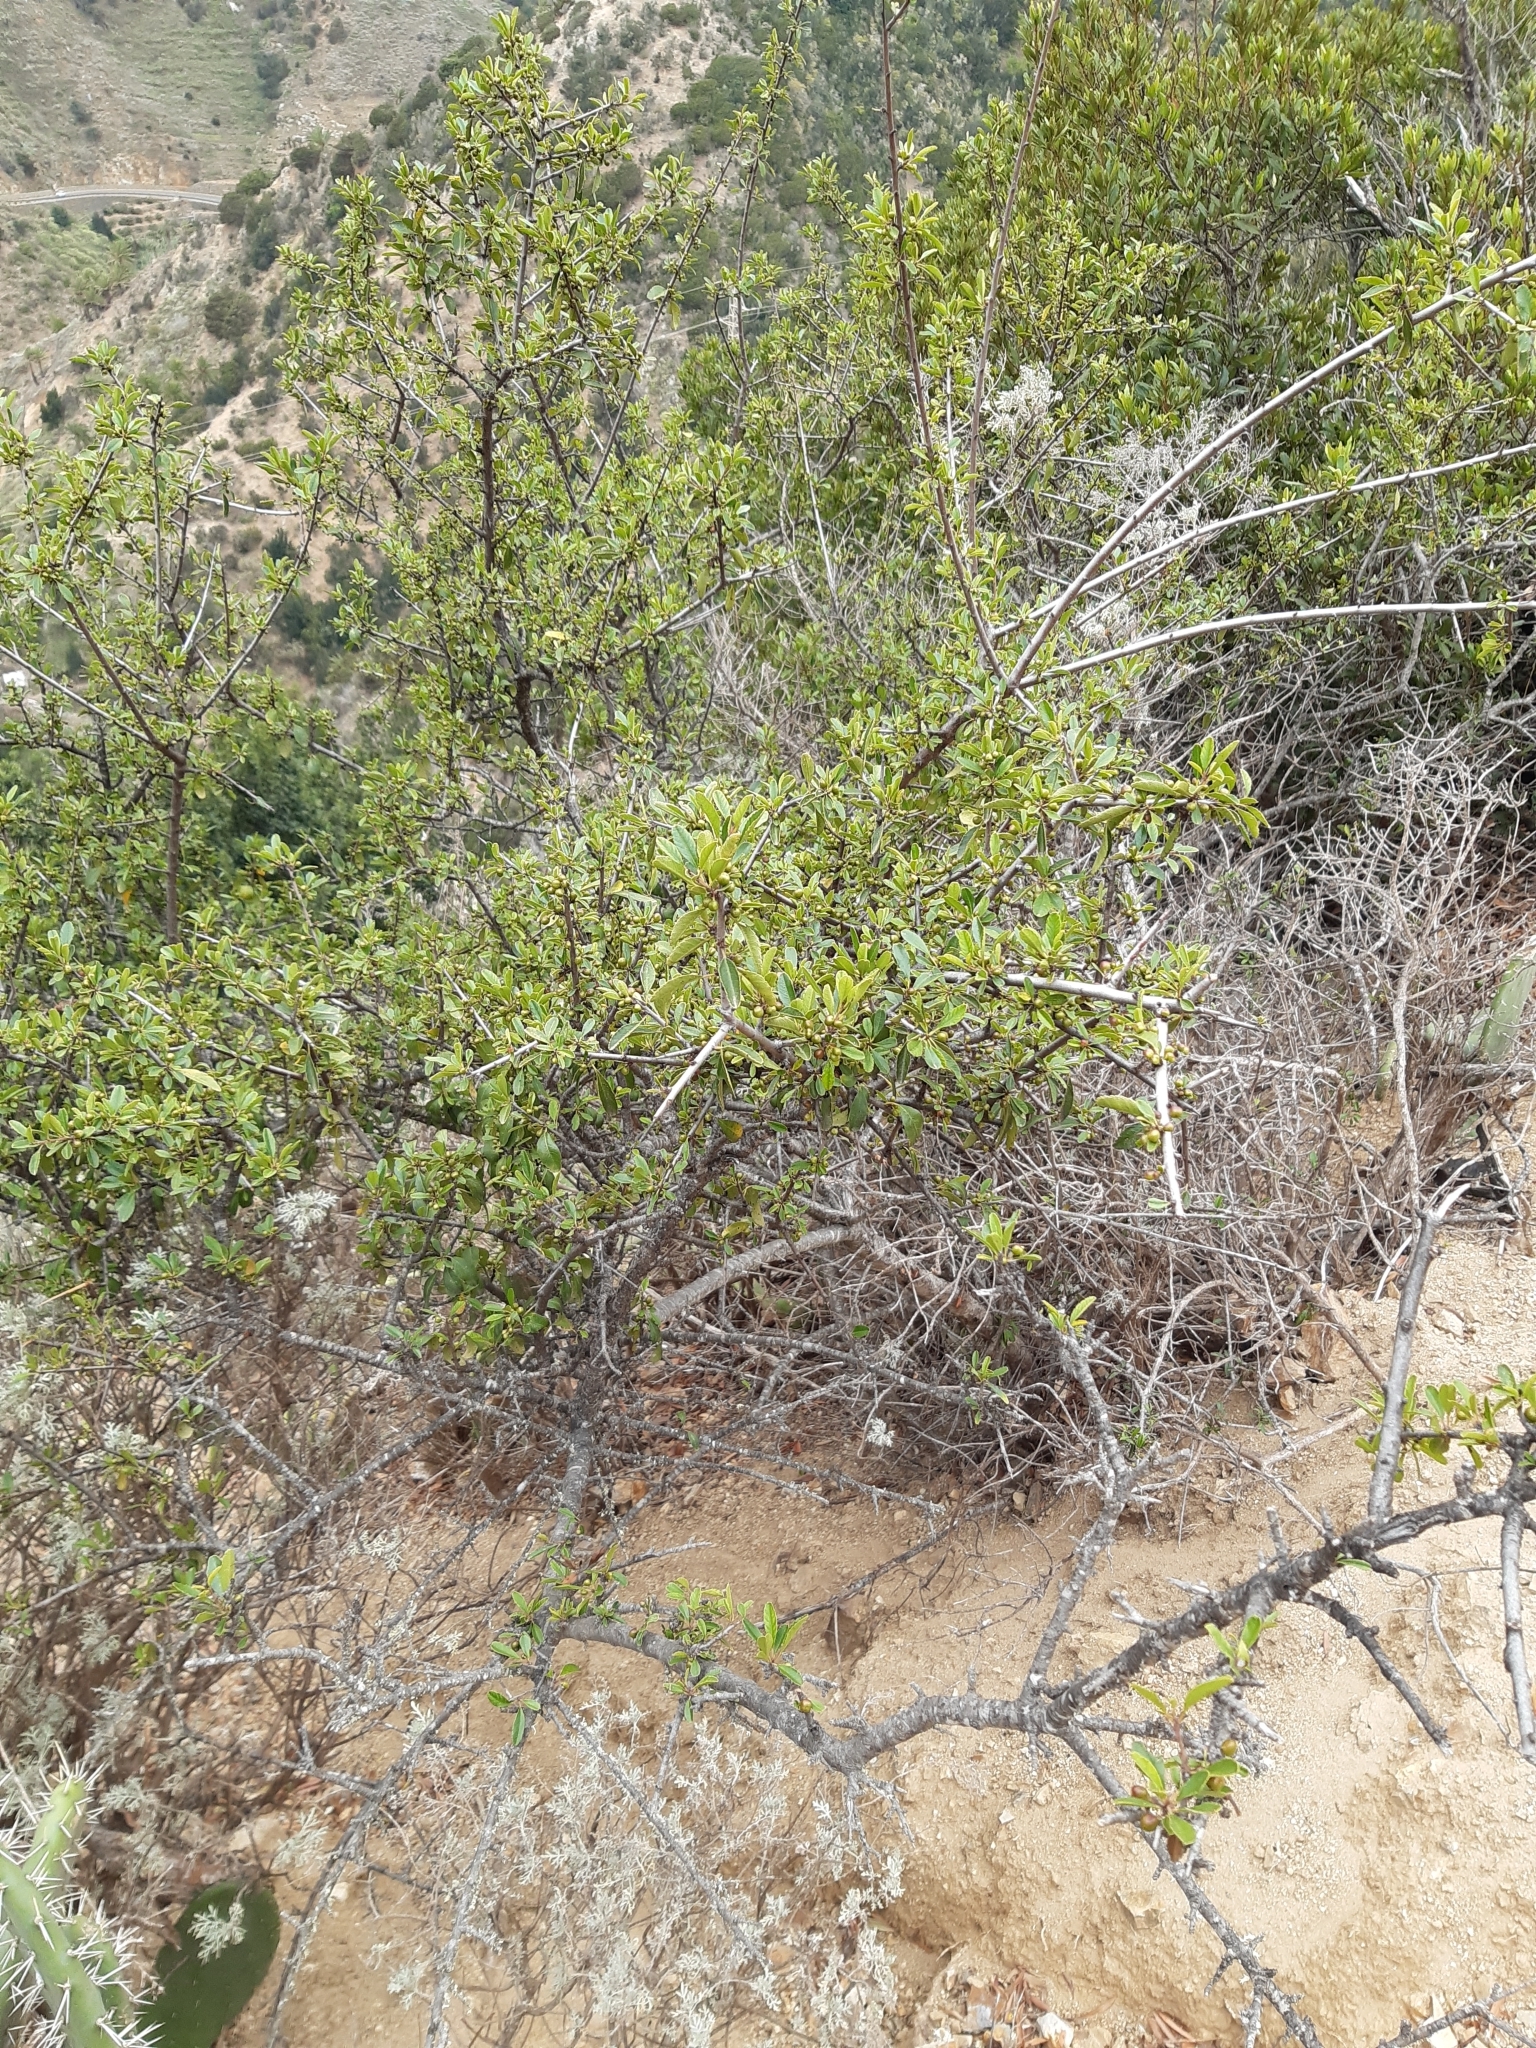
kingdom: Plantae
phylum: Tracheophyta
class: Magnoliopsida
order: Rosales
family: Rhamnaceae
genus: Rhamnus
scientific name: Rhamnus crenulata
